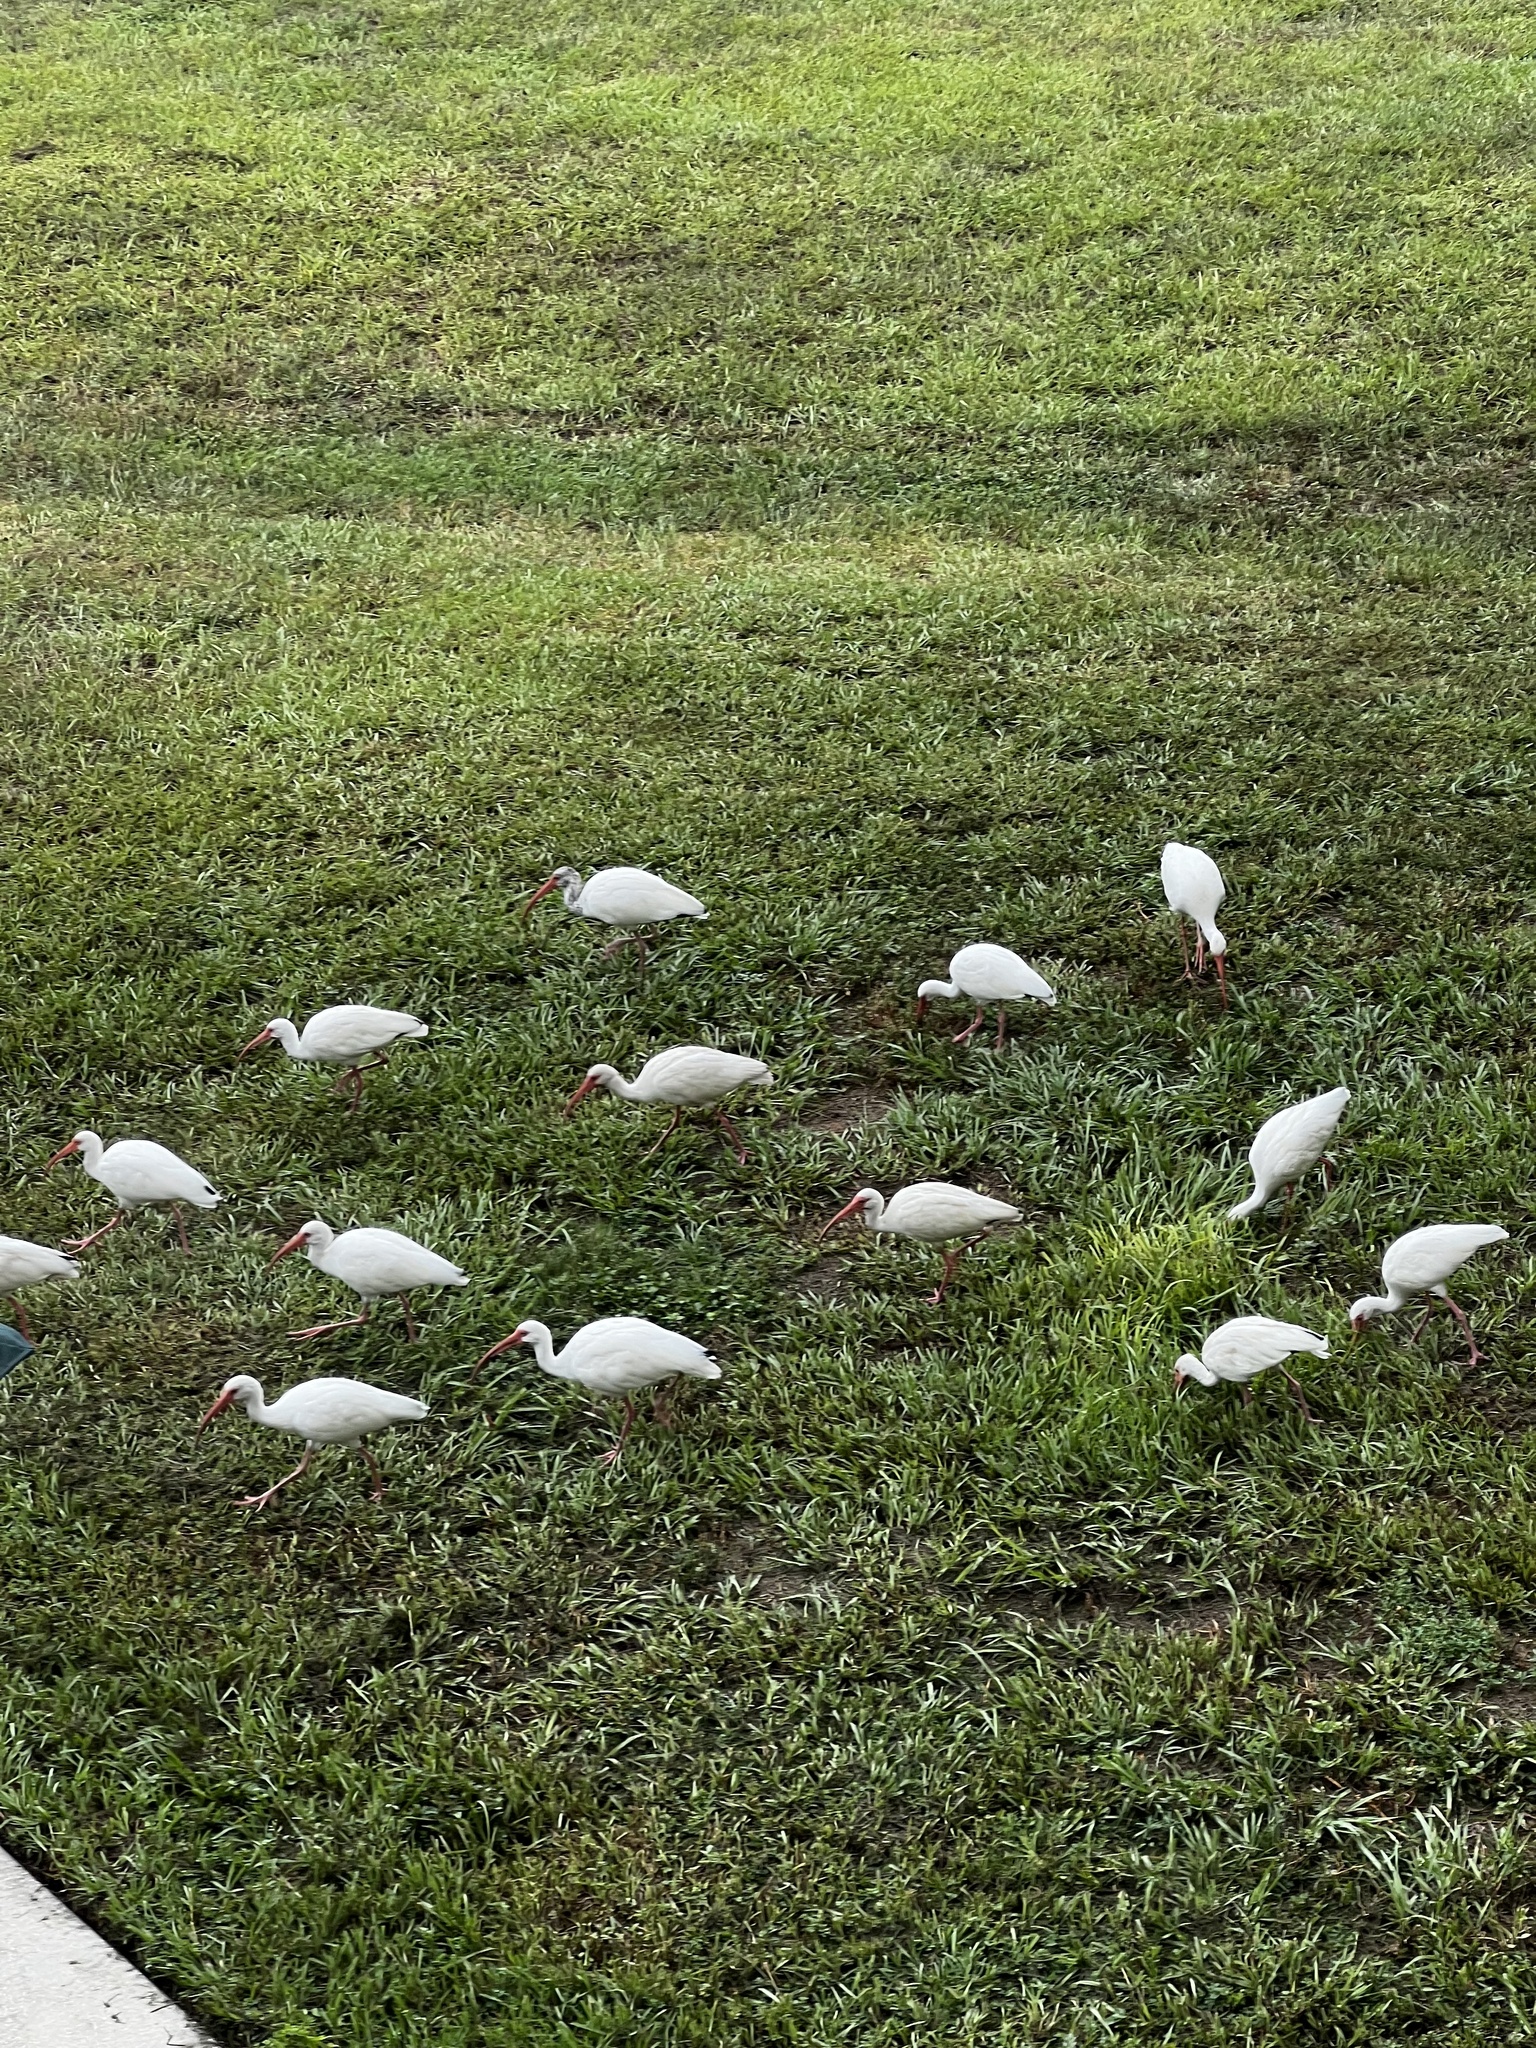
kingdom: Animalia
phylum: Chordata
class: Aves
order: Pelecaniformes
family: Threskiornithidae
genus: Eudocimus
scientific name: Eudocimus albus
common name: White ibis
